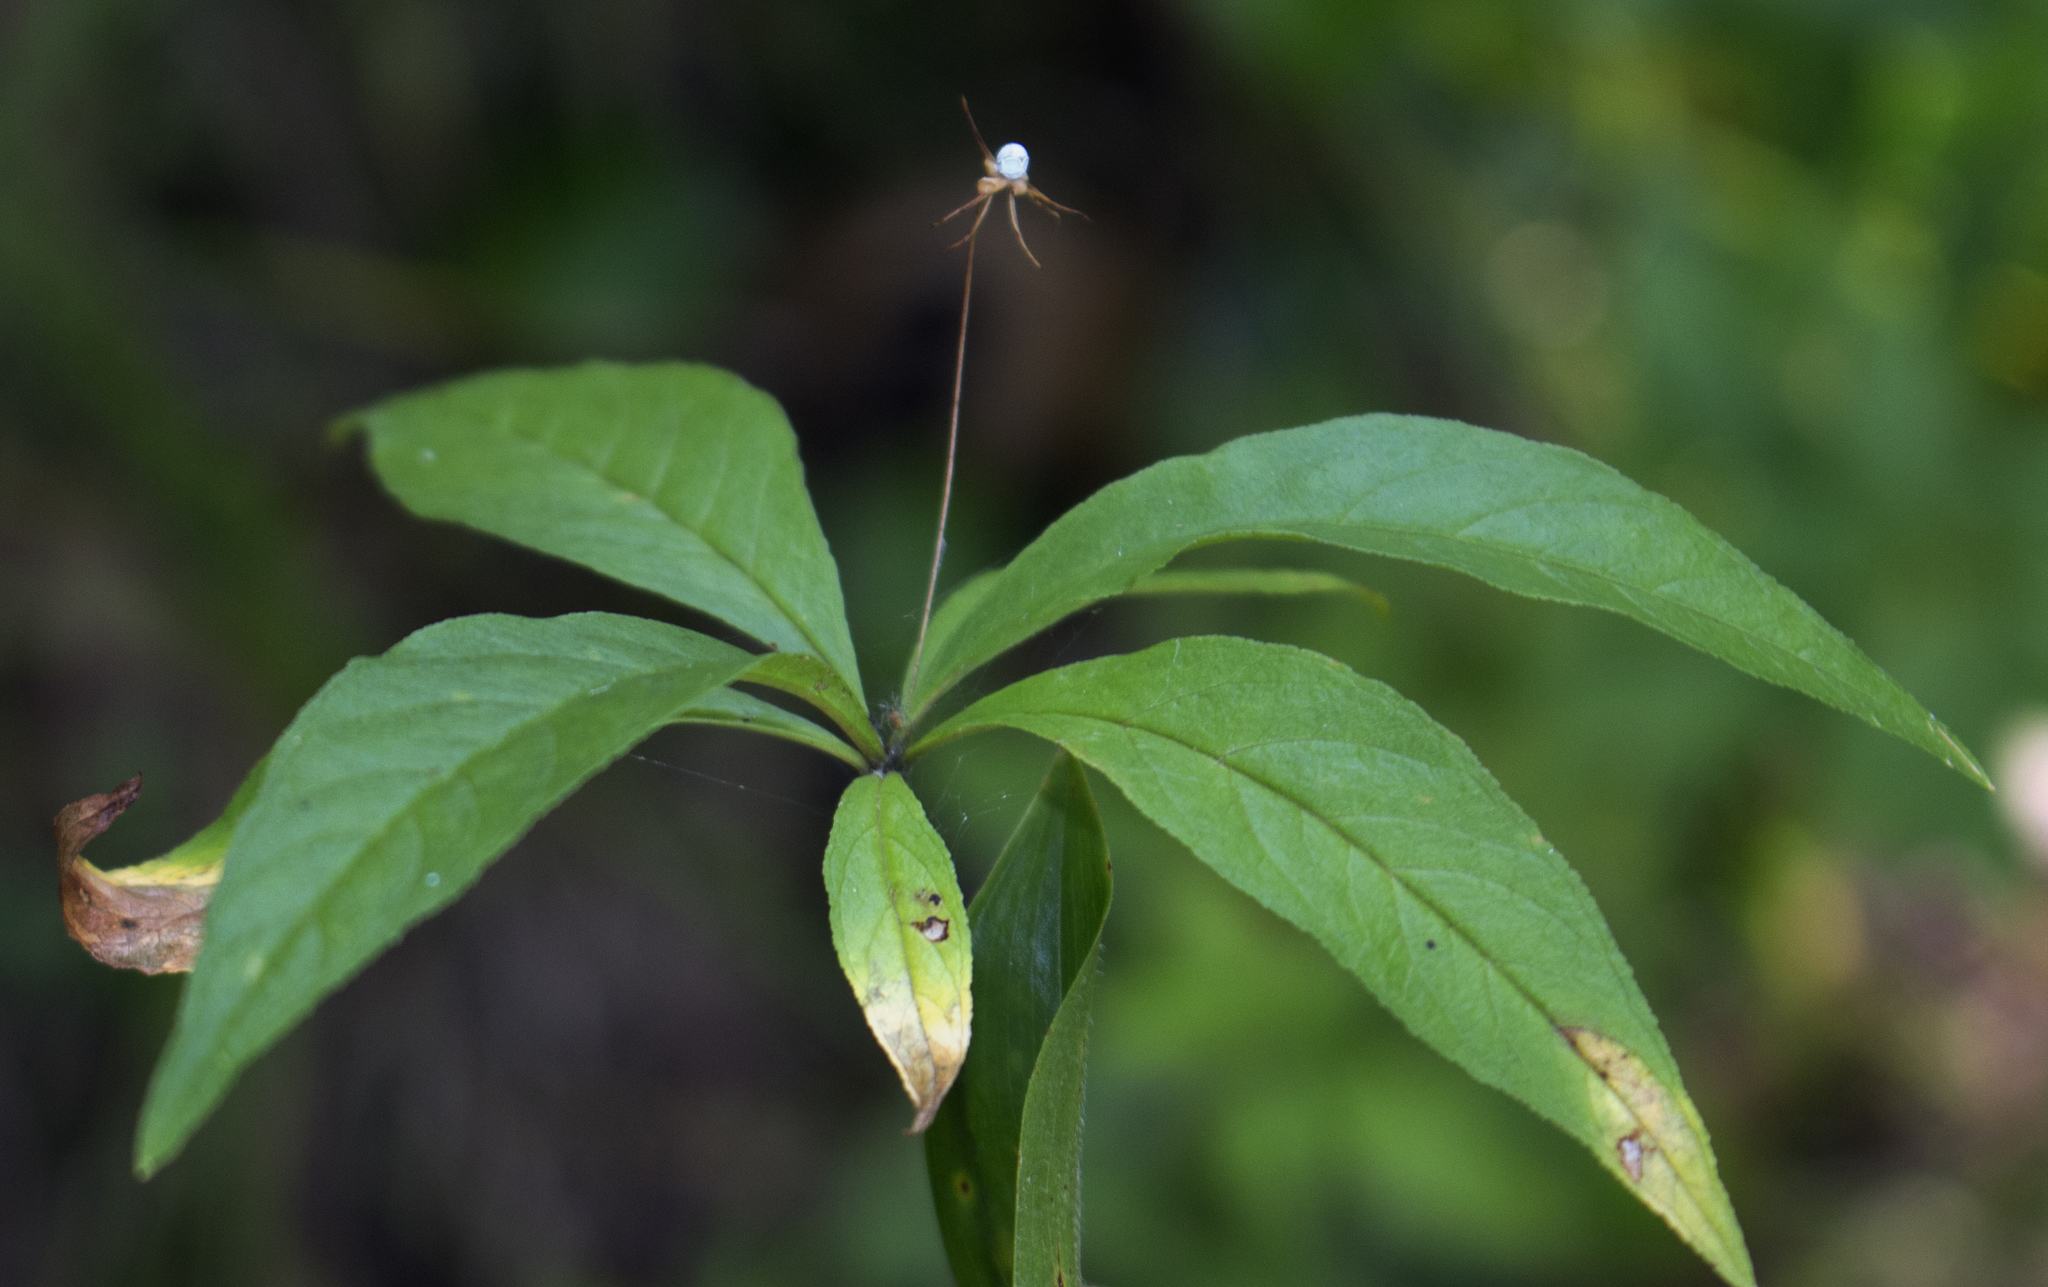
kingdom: Plantae
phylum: Tracheophyta
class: Magnoliopsida
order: Ericales
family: Primulaceae
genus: Lysimachia
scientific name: Lysimachia borealis
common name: American starflower
